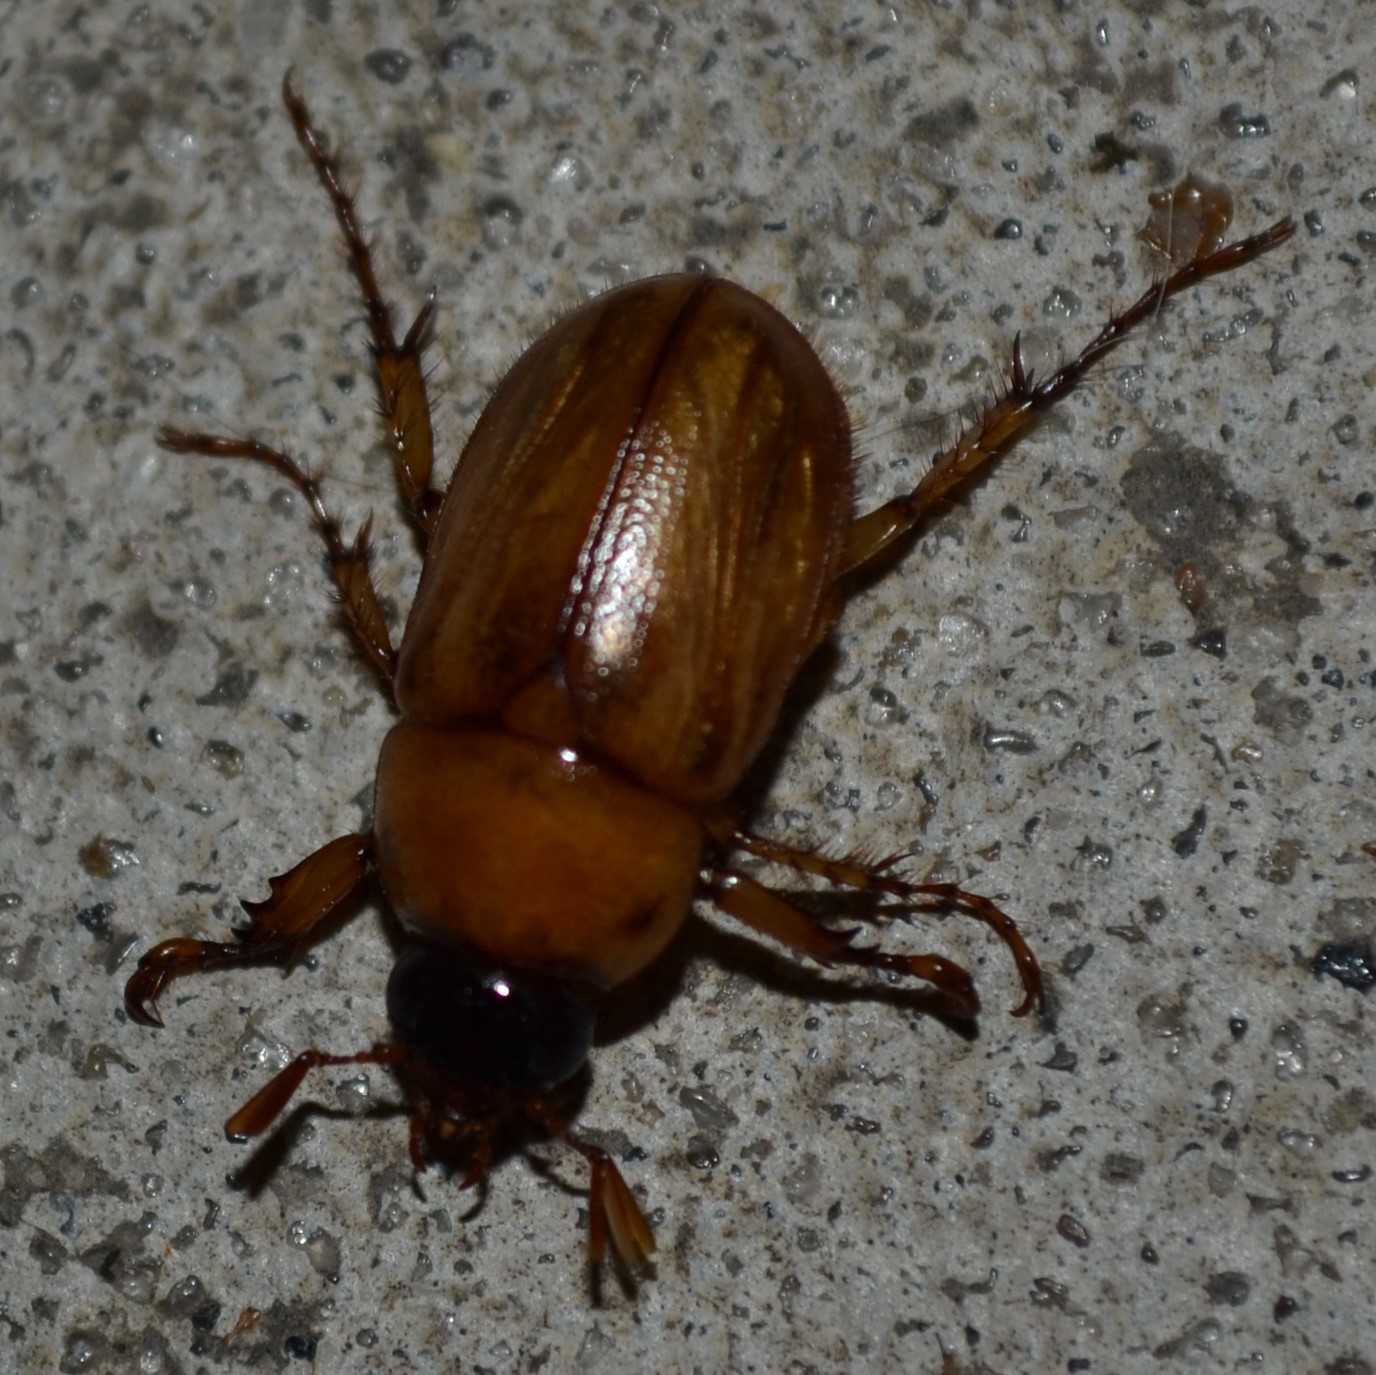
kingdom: Animalia
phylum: Arthropoda
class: Insecta
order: Coleoptera
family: Scarabaeidae
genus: Cyclocephala
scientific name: Cyclocephala lurida
